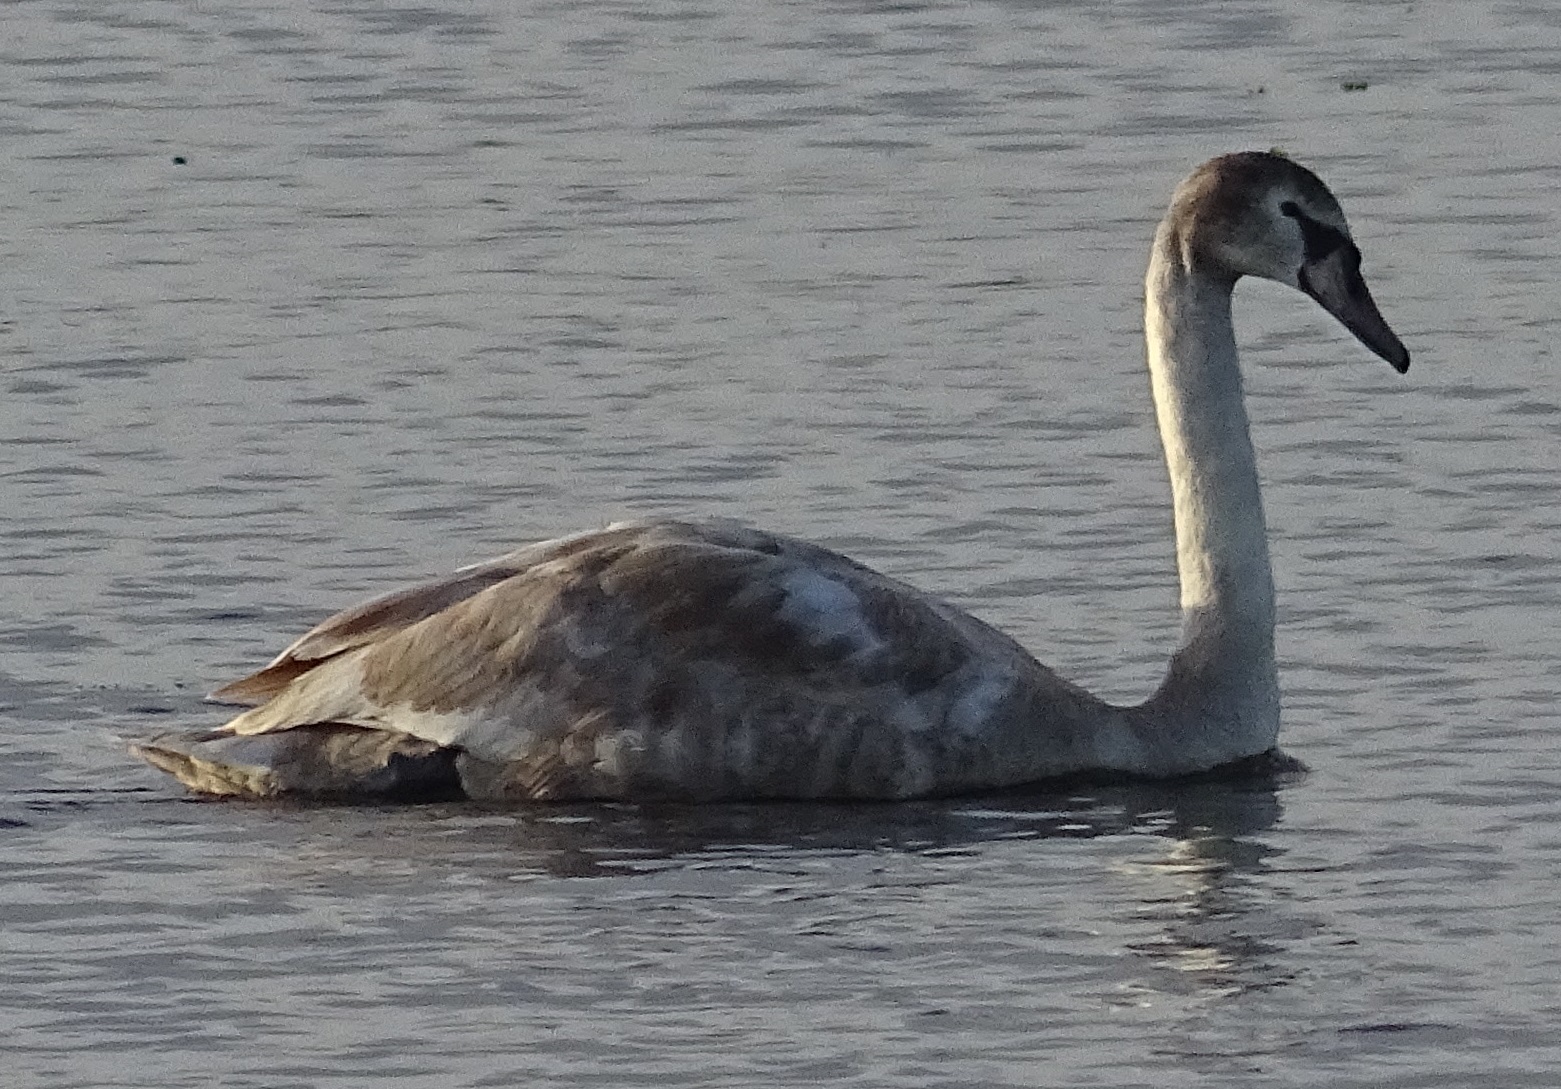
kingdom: Animalia
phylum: Chordata
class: Aves
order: Anseriformes
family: Anatidae
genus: Cygnus
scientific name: Cygnus olor
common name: Mute swan
